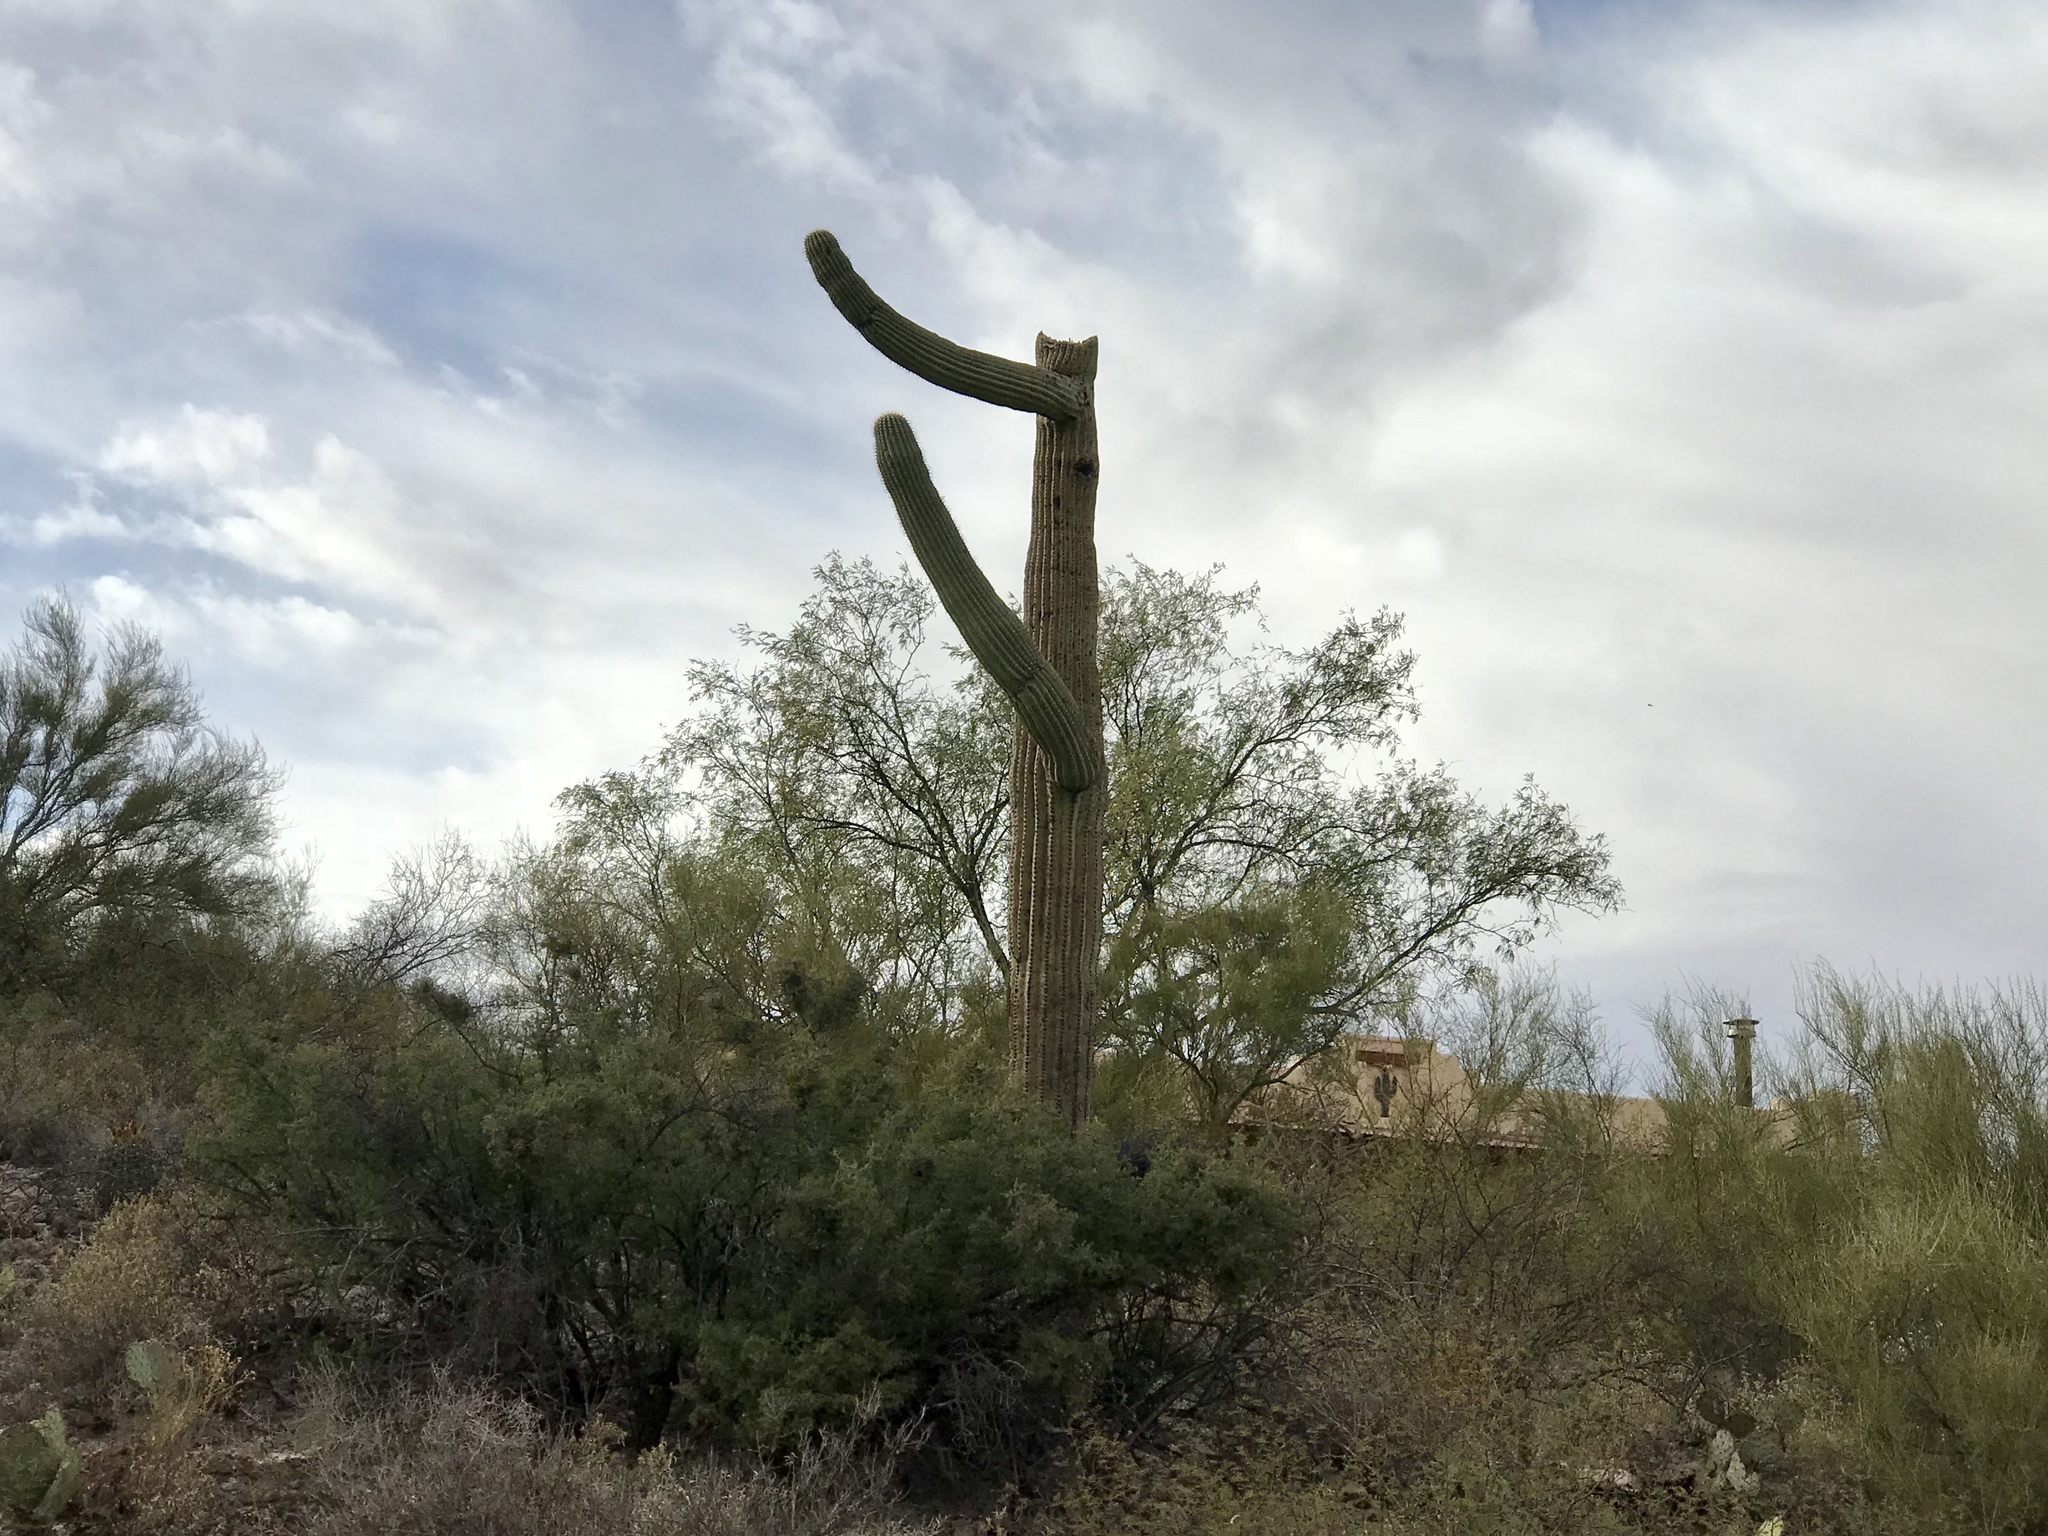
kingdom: Plantae
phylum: Tracheophyta
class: Magnoliopsida
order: Caryophyllales
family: Cactaceae
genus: Carnegiea
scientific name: Carnegiea gigantea
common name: Saguaro
